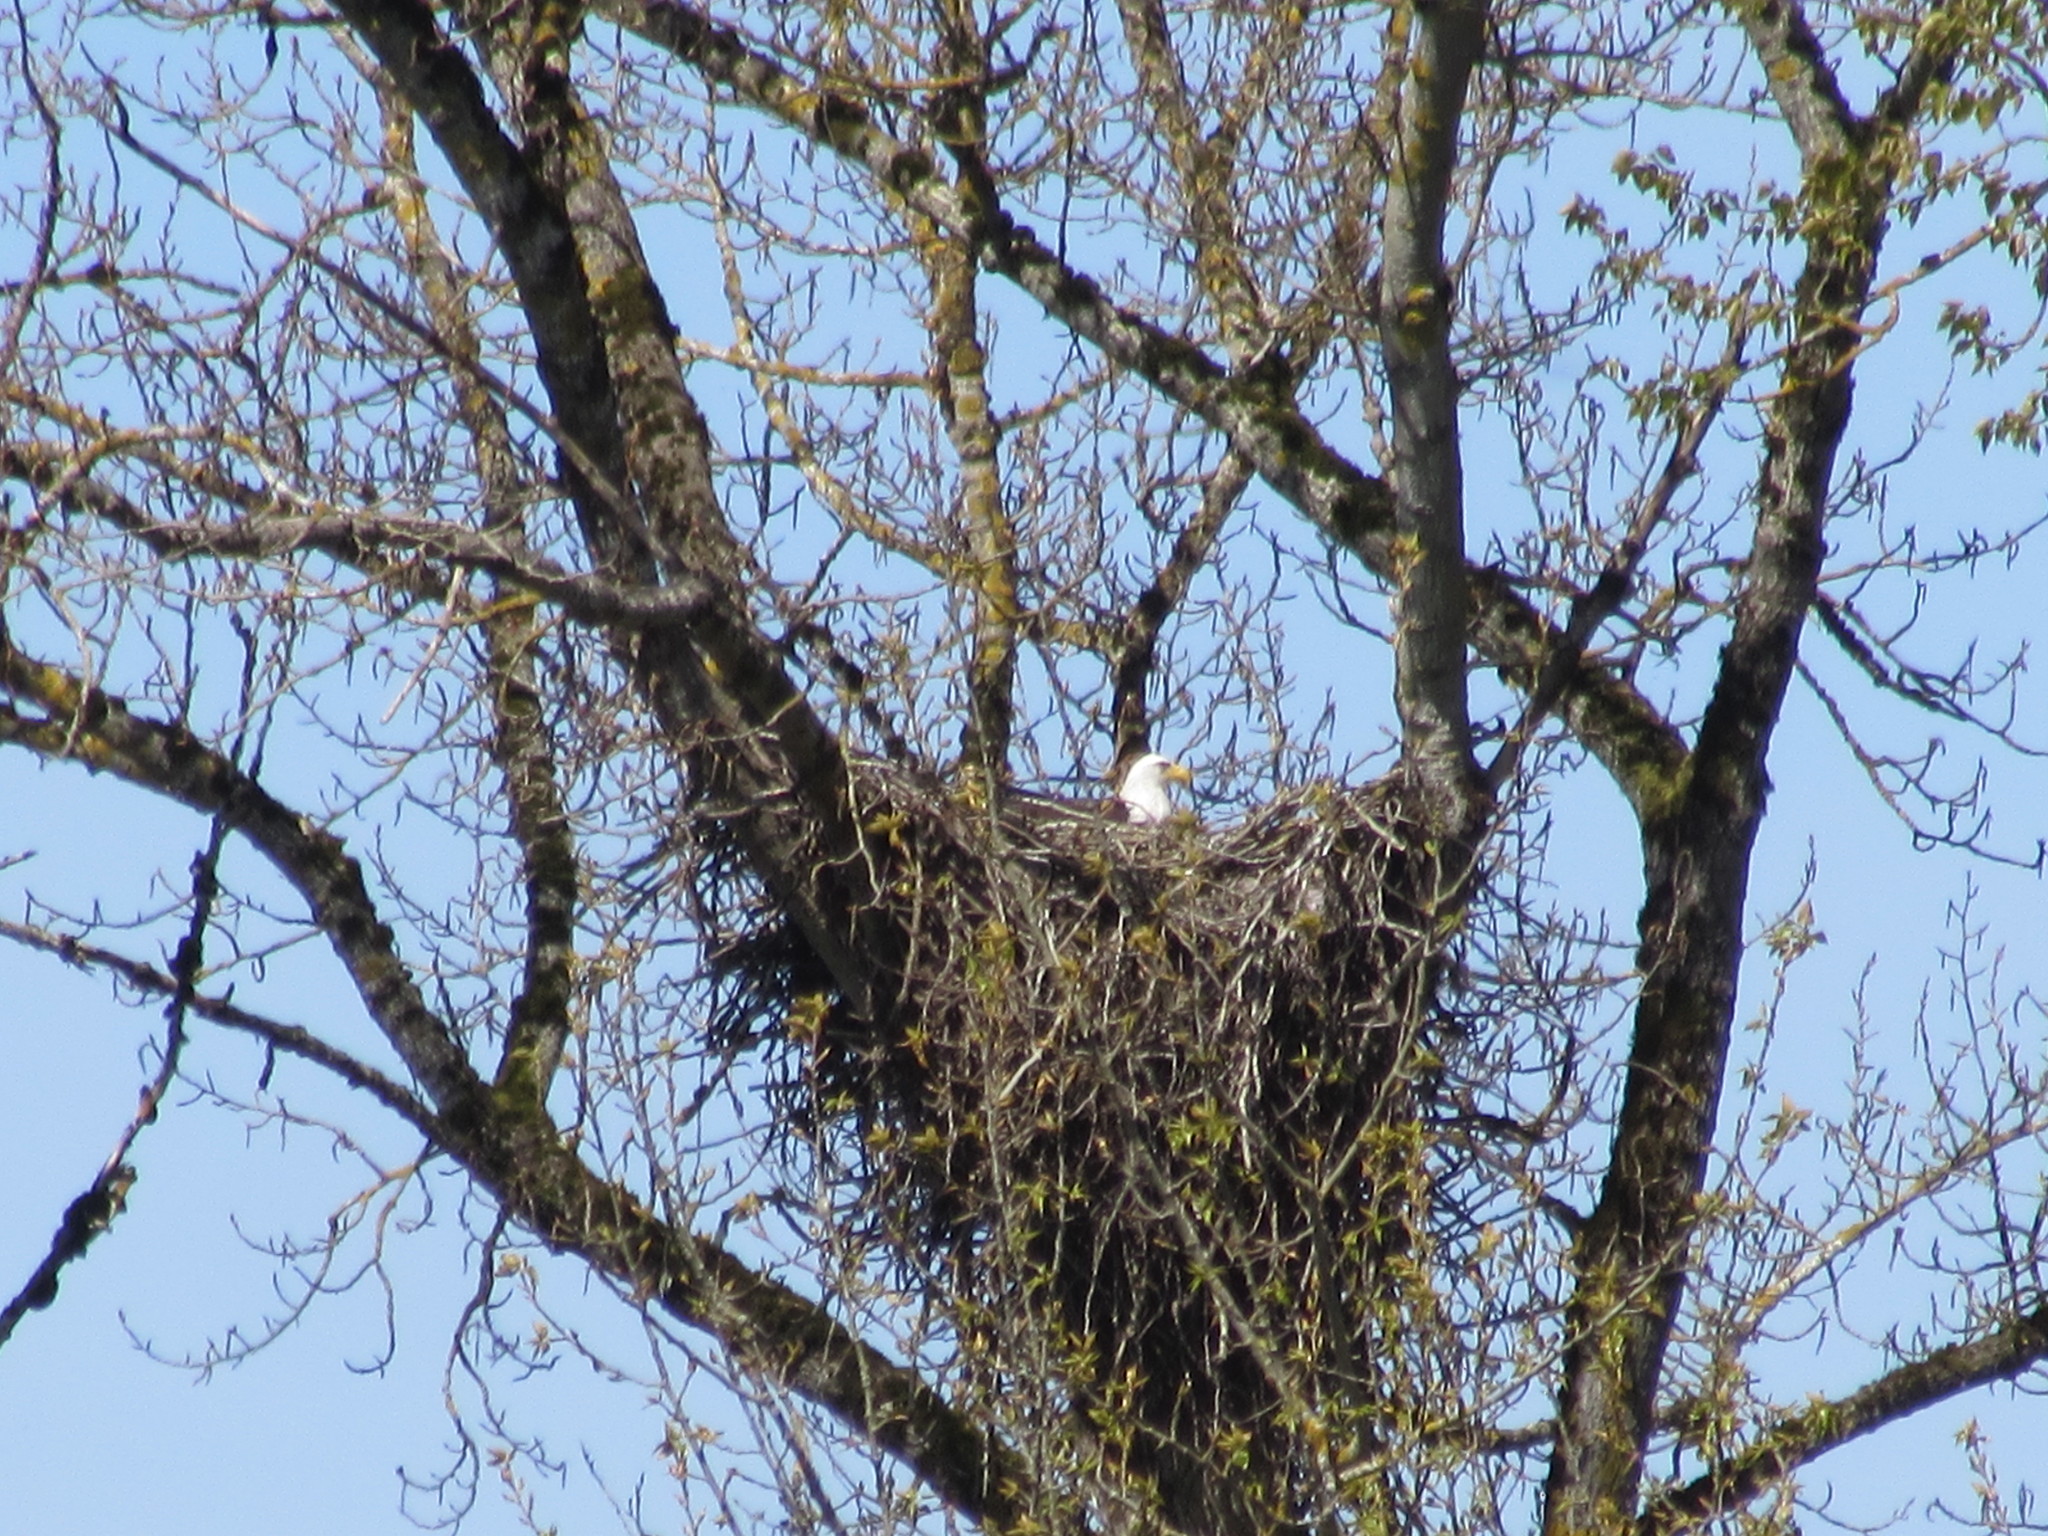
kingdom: Animalia
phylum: Chordata
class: Aves
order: Accipitriformes
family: Accipitridae
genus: Haliaeetus
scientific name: Haliaeetus leucocephalus
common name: Bald eagle
